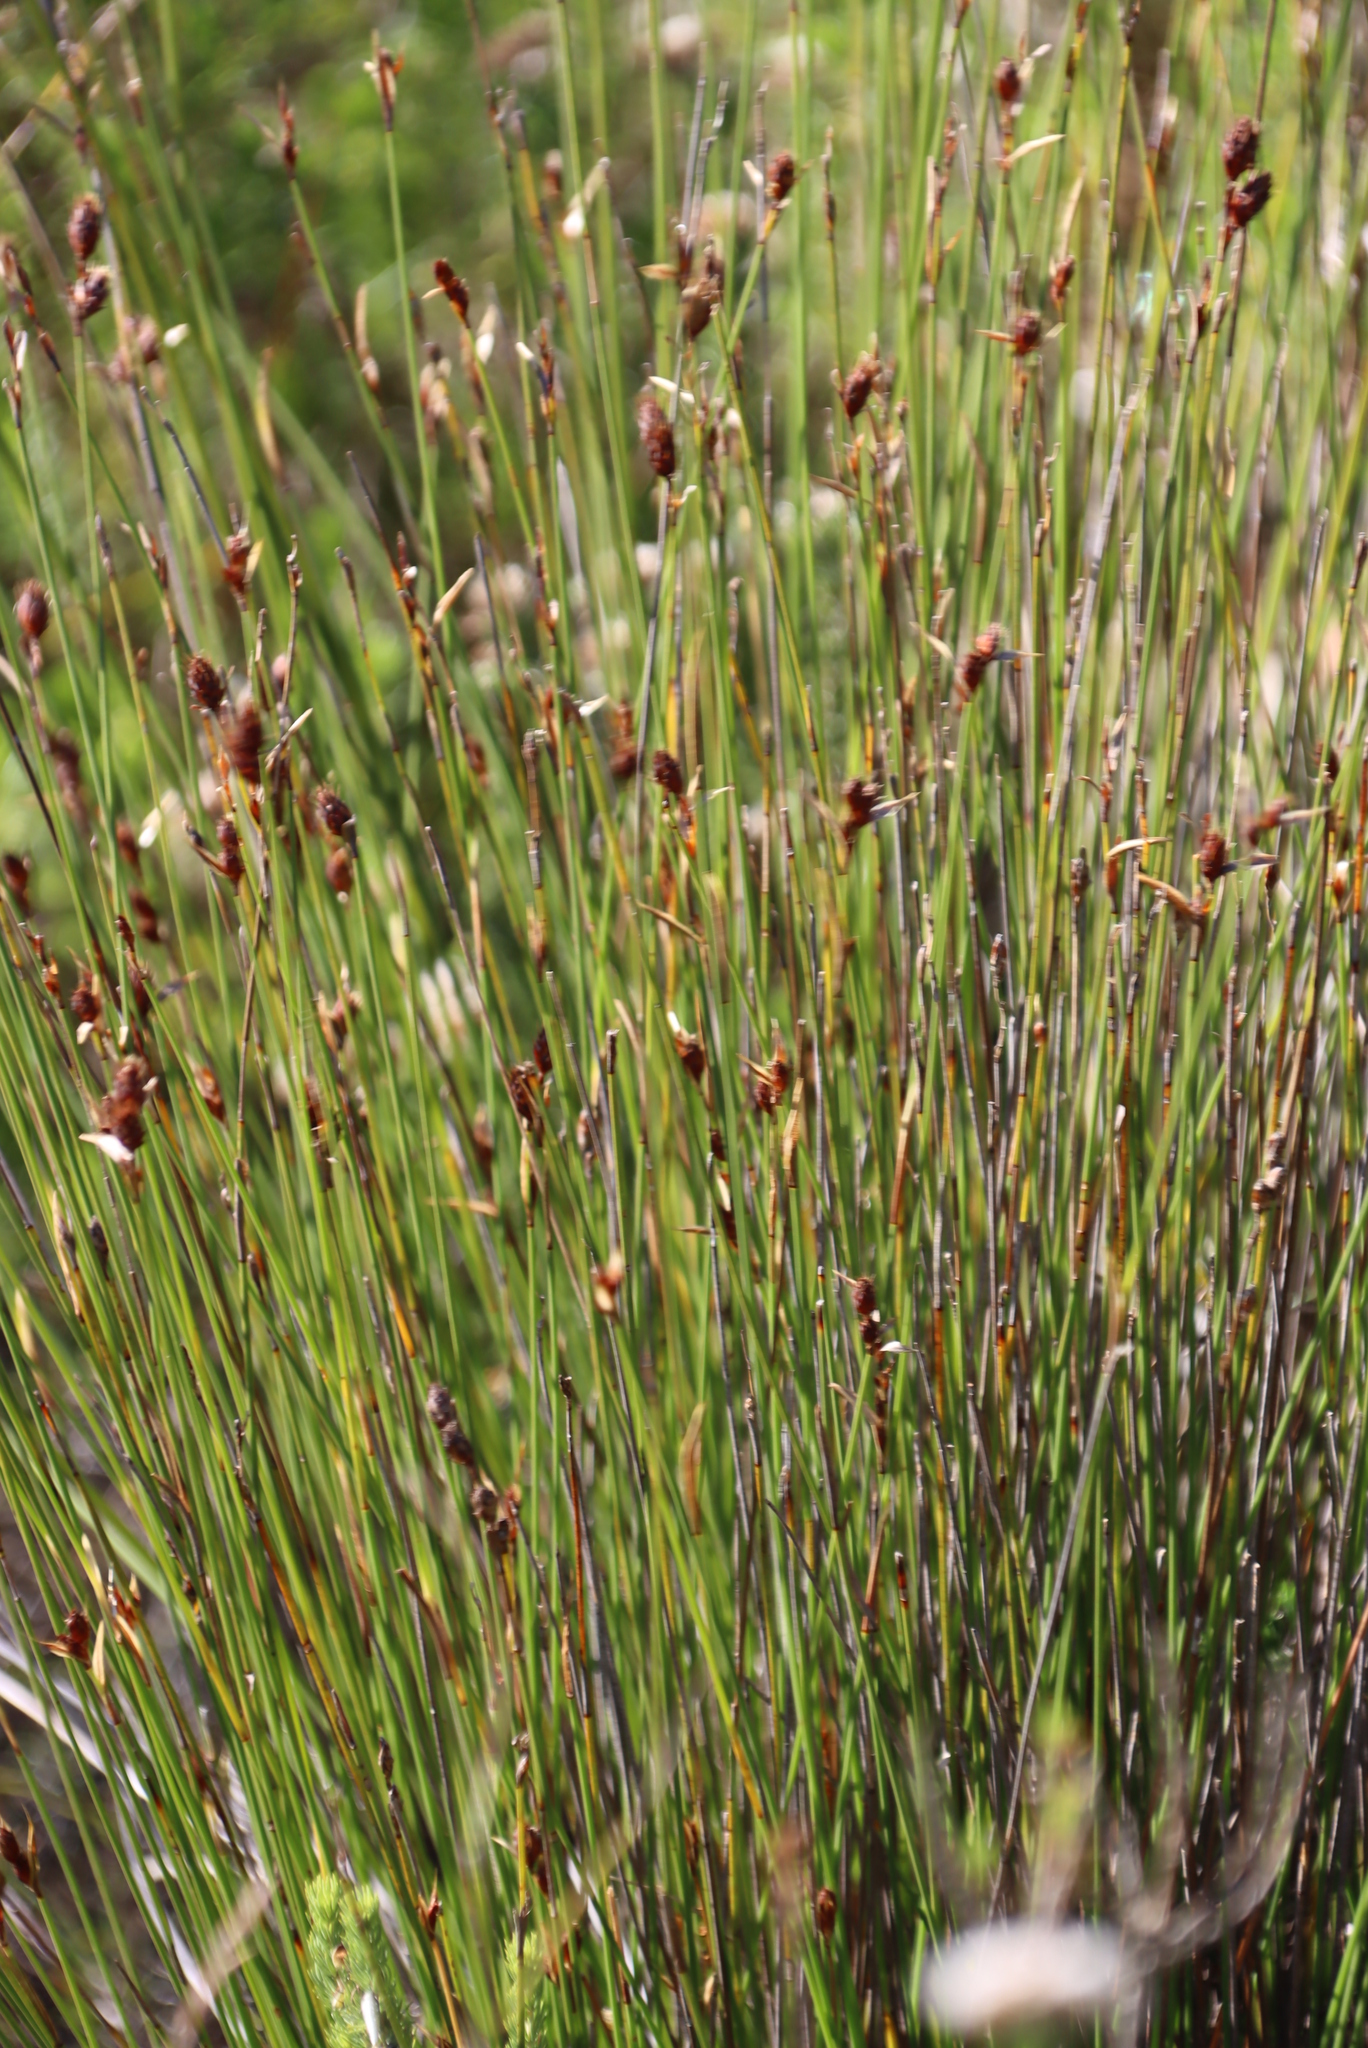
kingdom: Plantae
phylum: Tracheophyta
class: Liliopsida
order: Poales
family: Restionaceae
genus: Hypodiscus
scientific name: Hypodiscus aristatus
